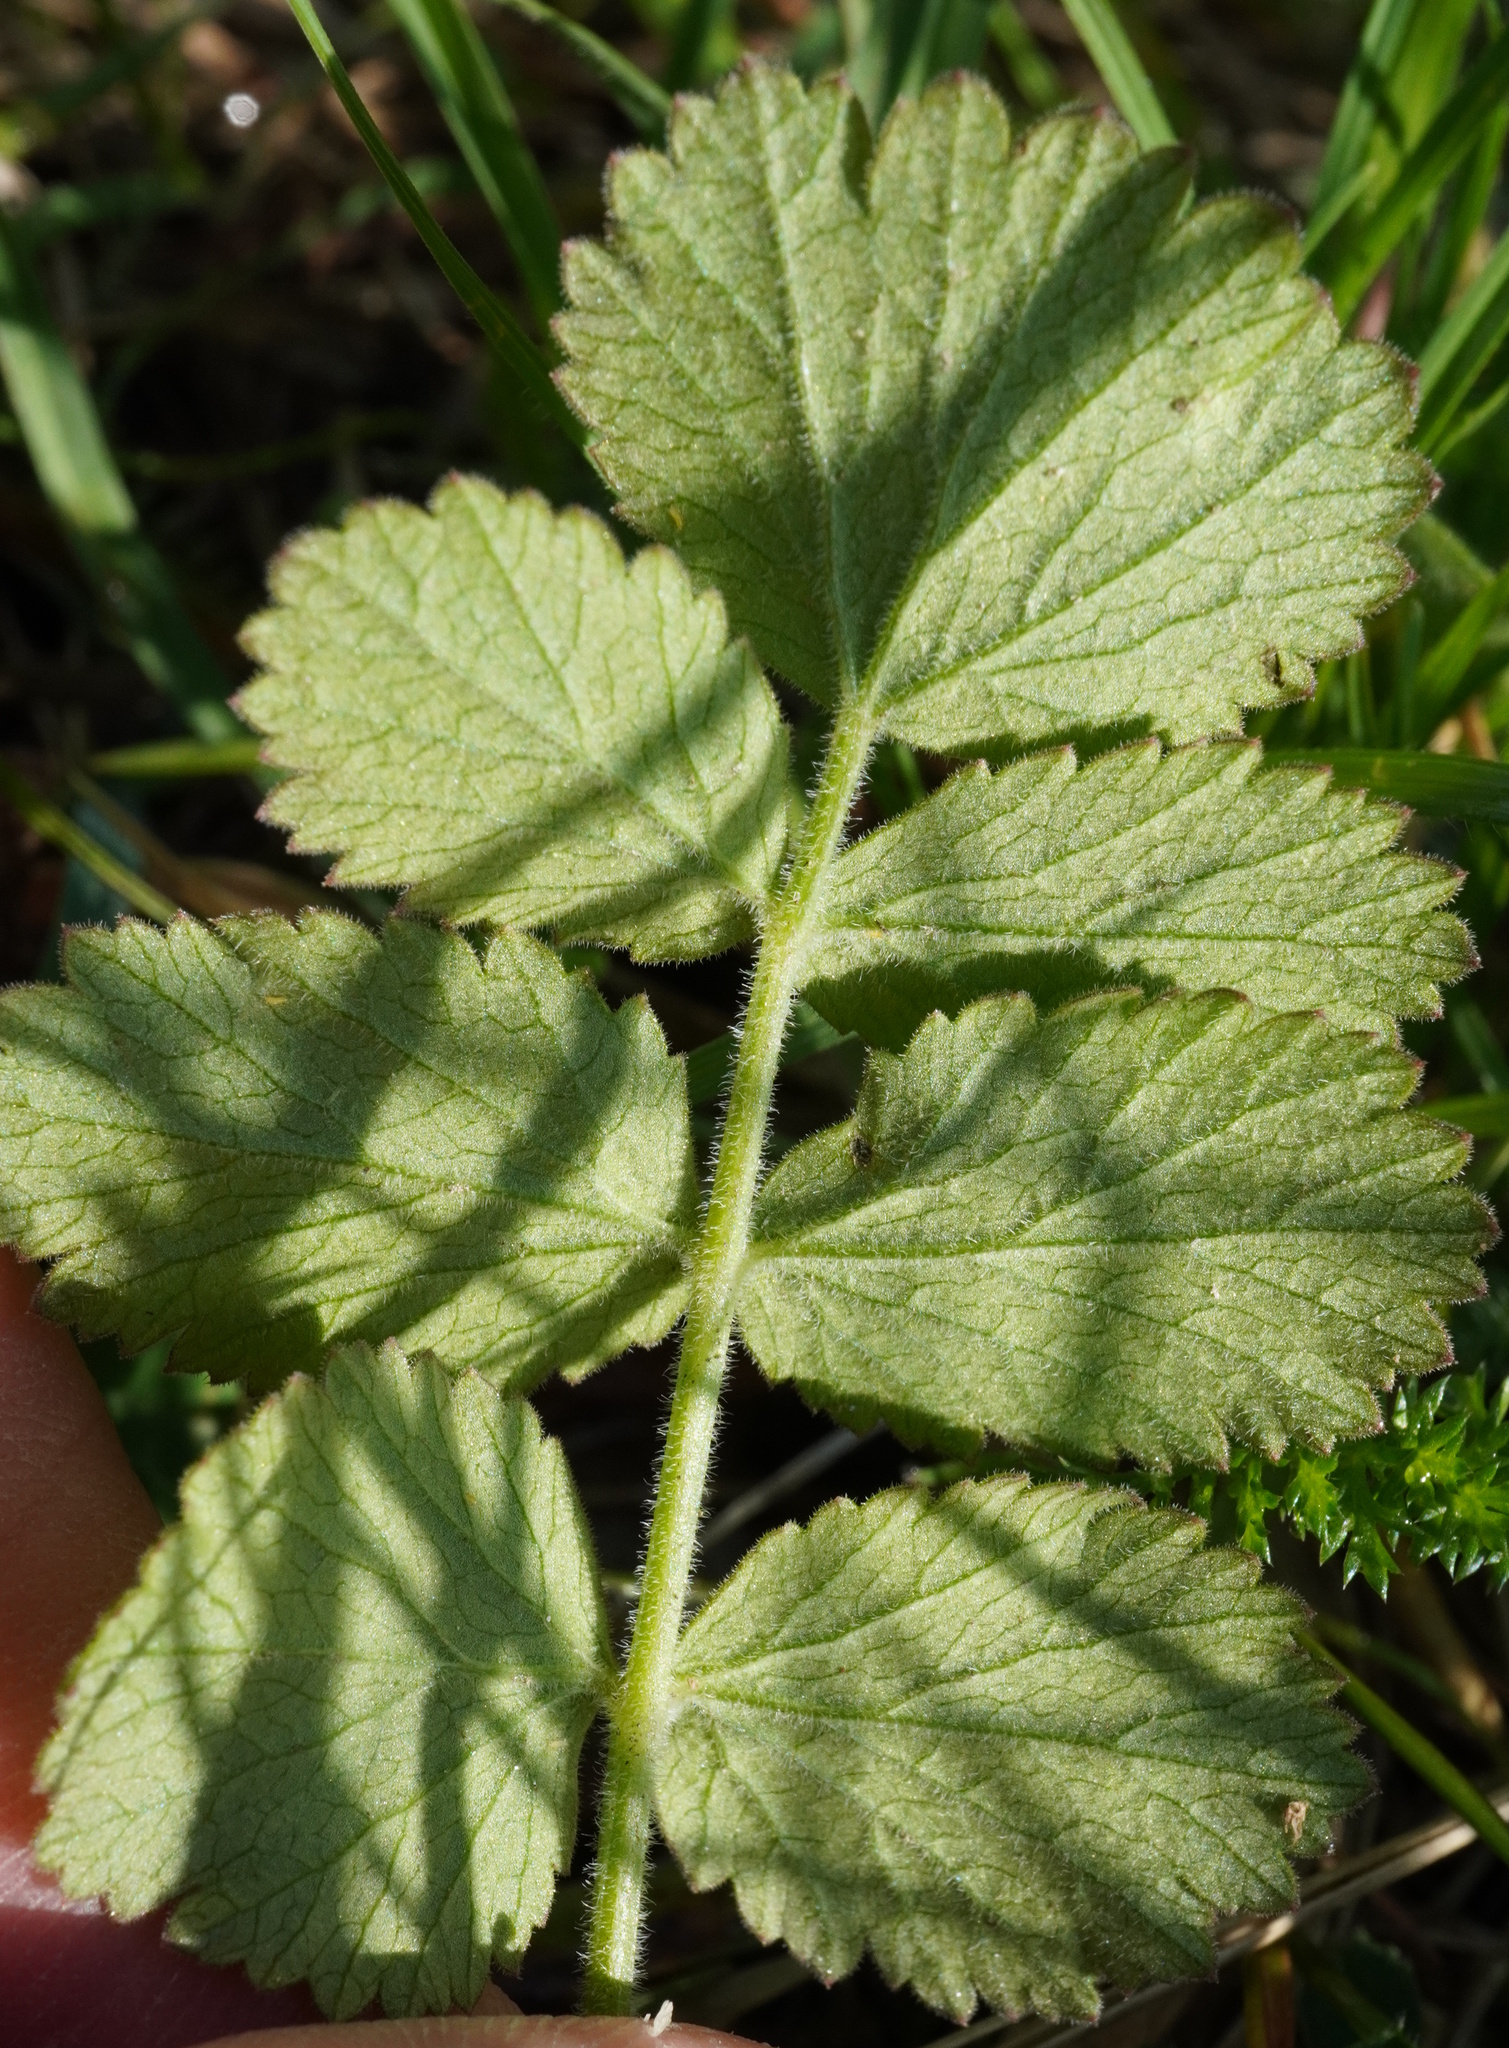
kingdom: Plantae
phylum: Tracheophyta
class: Magnoliopsida
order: Apiales
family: Apiaceae
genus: Pimpinella
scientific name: Pimpinella saxifraga
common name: Burnet-saxifrage
